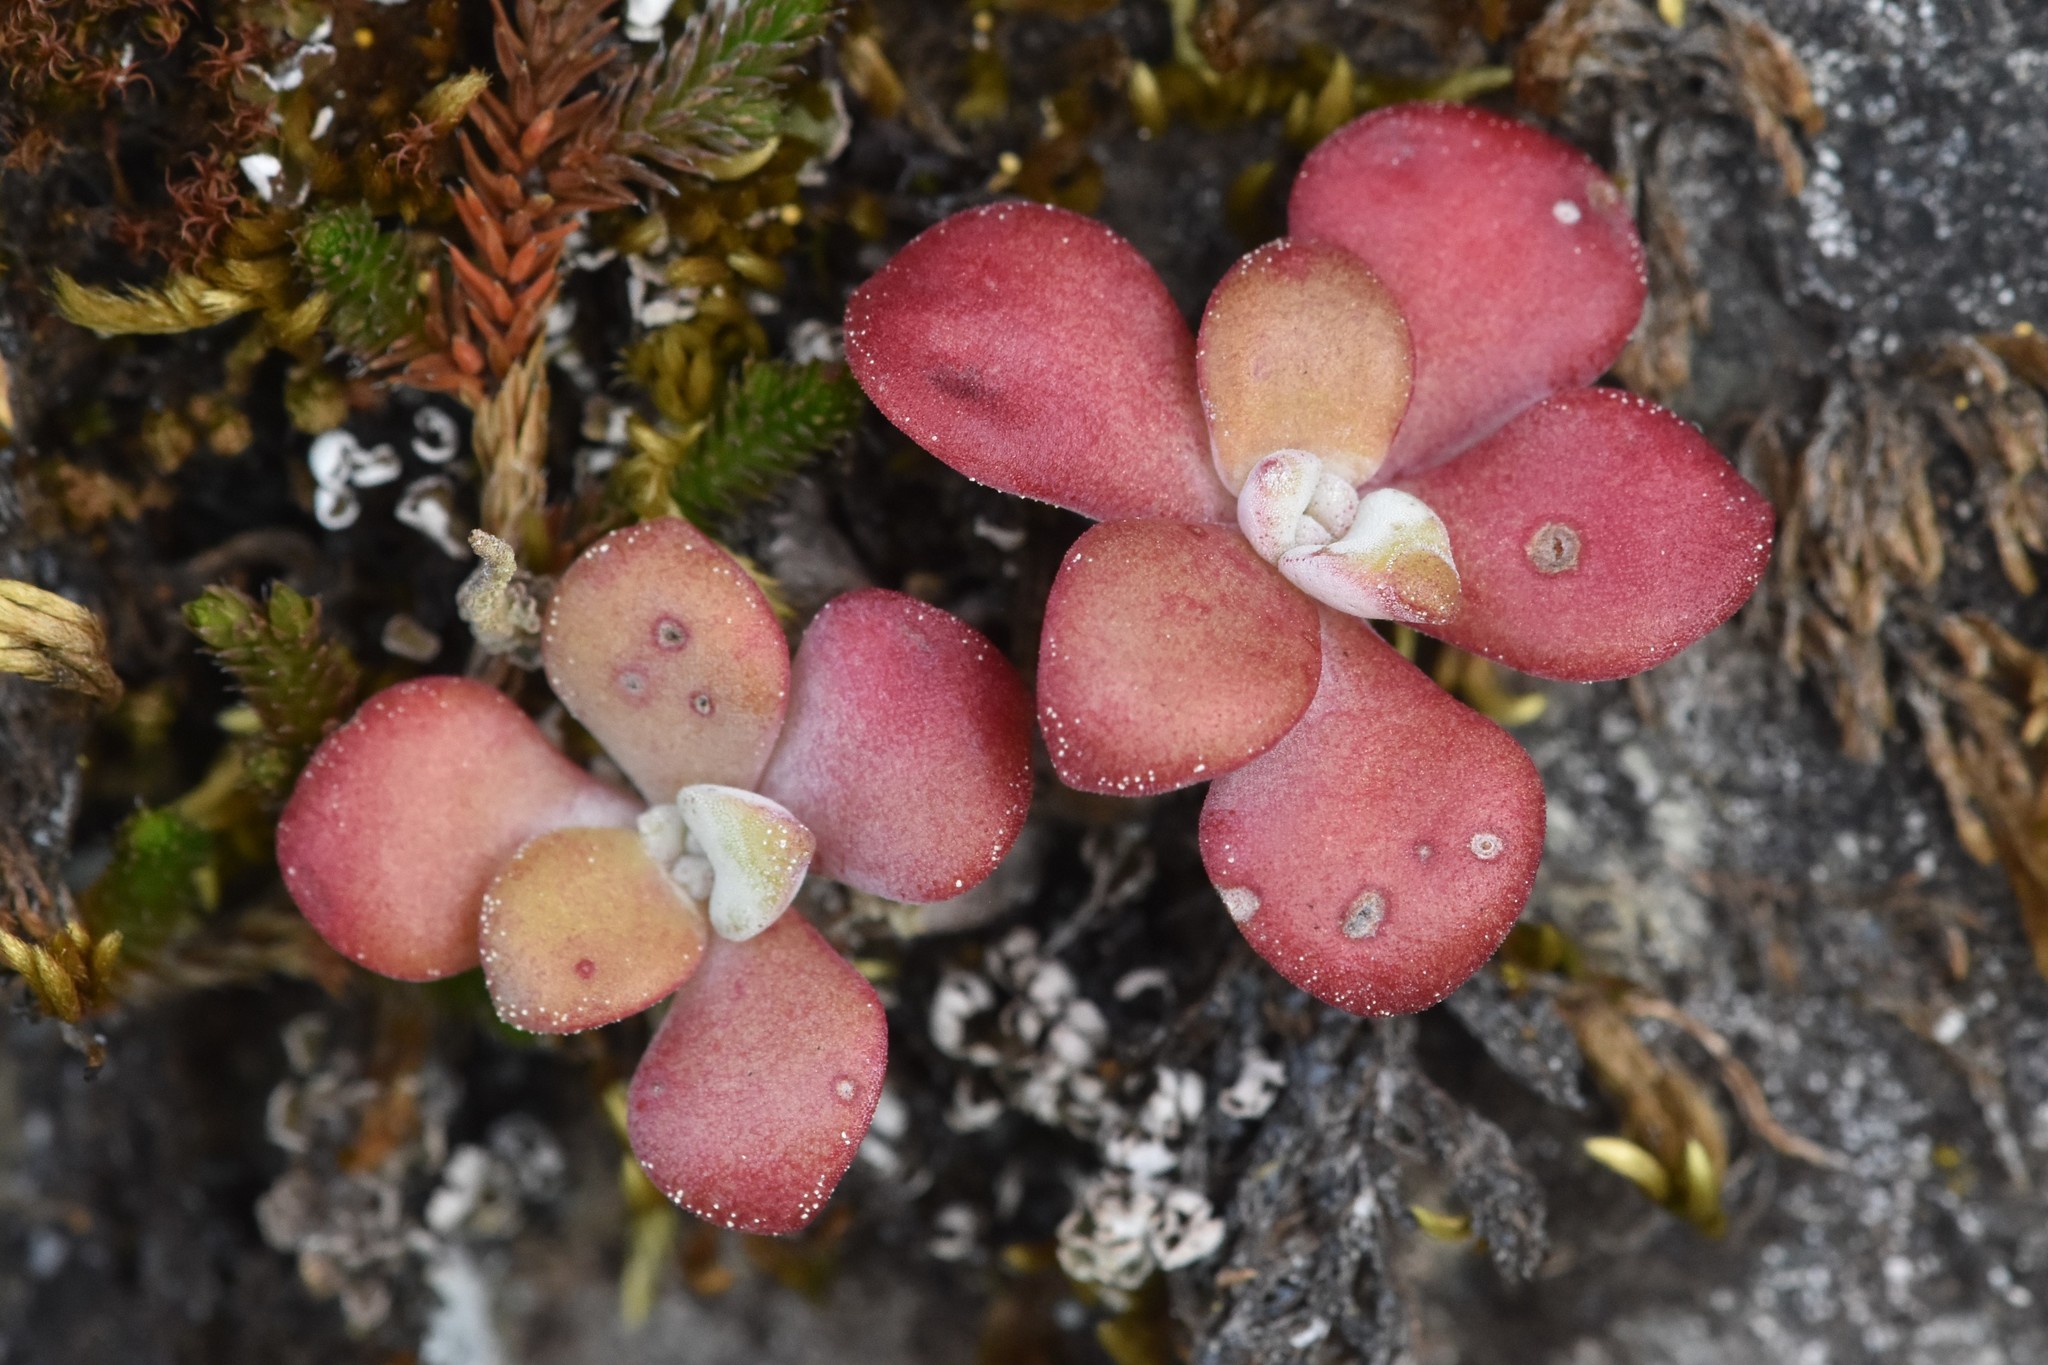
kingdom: Plantae
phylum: Tracheophyta
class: Magnoliopsida
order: Saxifragales
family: Crassulaceae
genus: Sedum
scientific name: Sedum spathulifolium
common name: Colorado stonecrop
